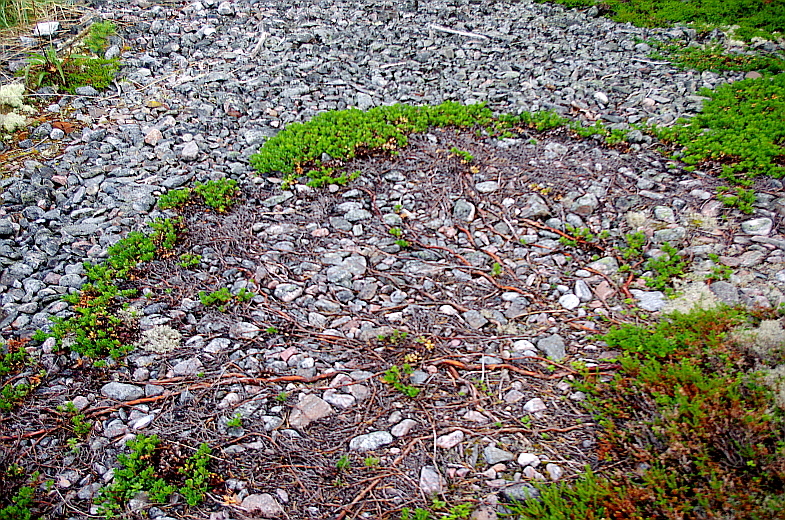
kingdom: Plantae
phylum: Tracheophyta
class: Magnoliopsida
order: Ericales
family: Ericaceae
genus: Arctostaphylos
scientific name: Arctostaphylos uva-ursi
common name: Bearberry
